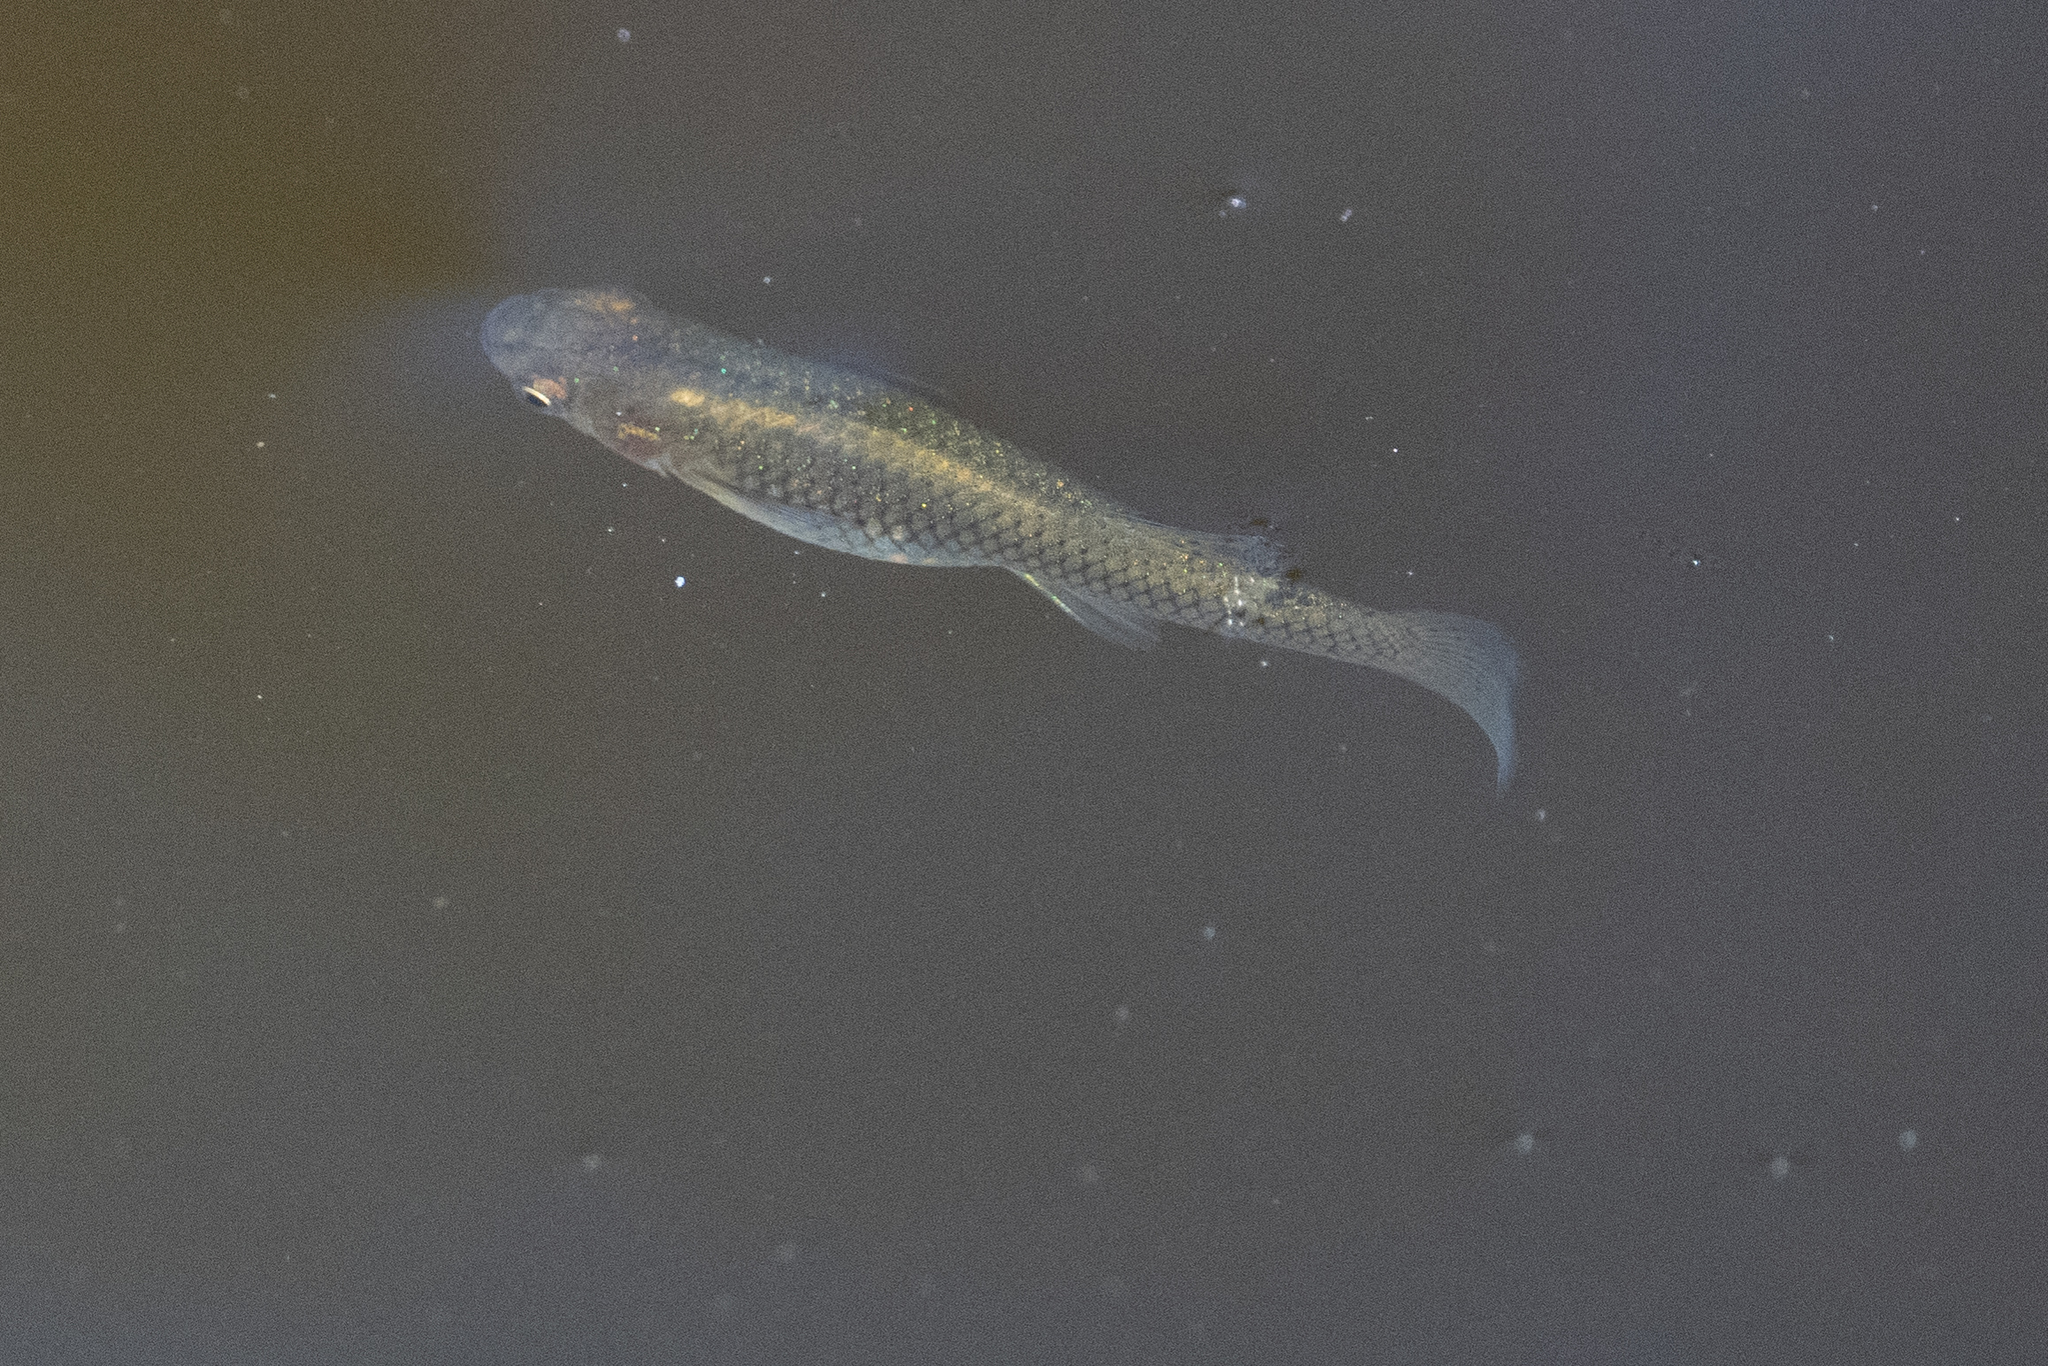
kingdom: Animalia
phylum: Chordata
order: Cyprinodontiformes
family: Poeciliidae
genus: Gambusia
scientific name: Gambusia affinis
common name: Mosquitofish
